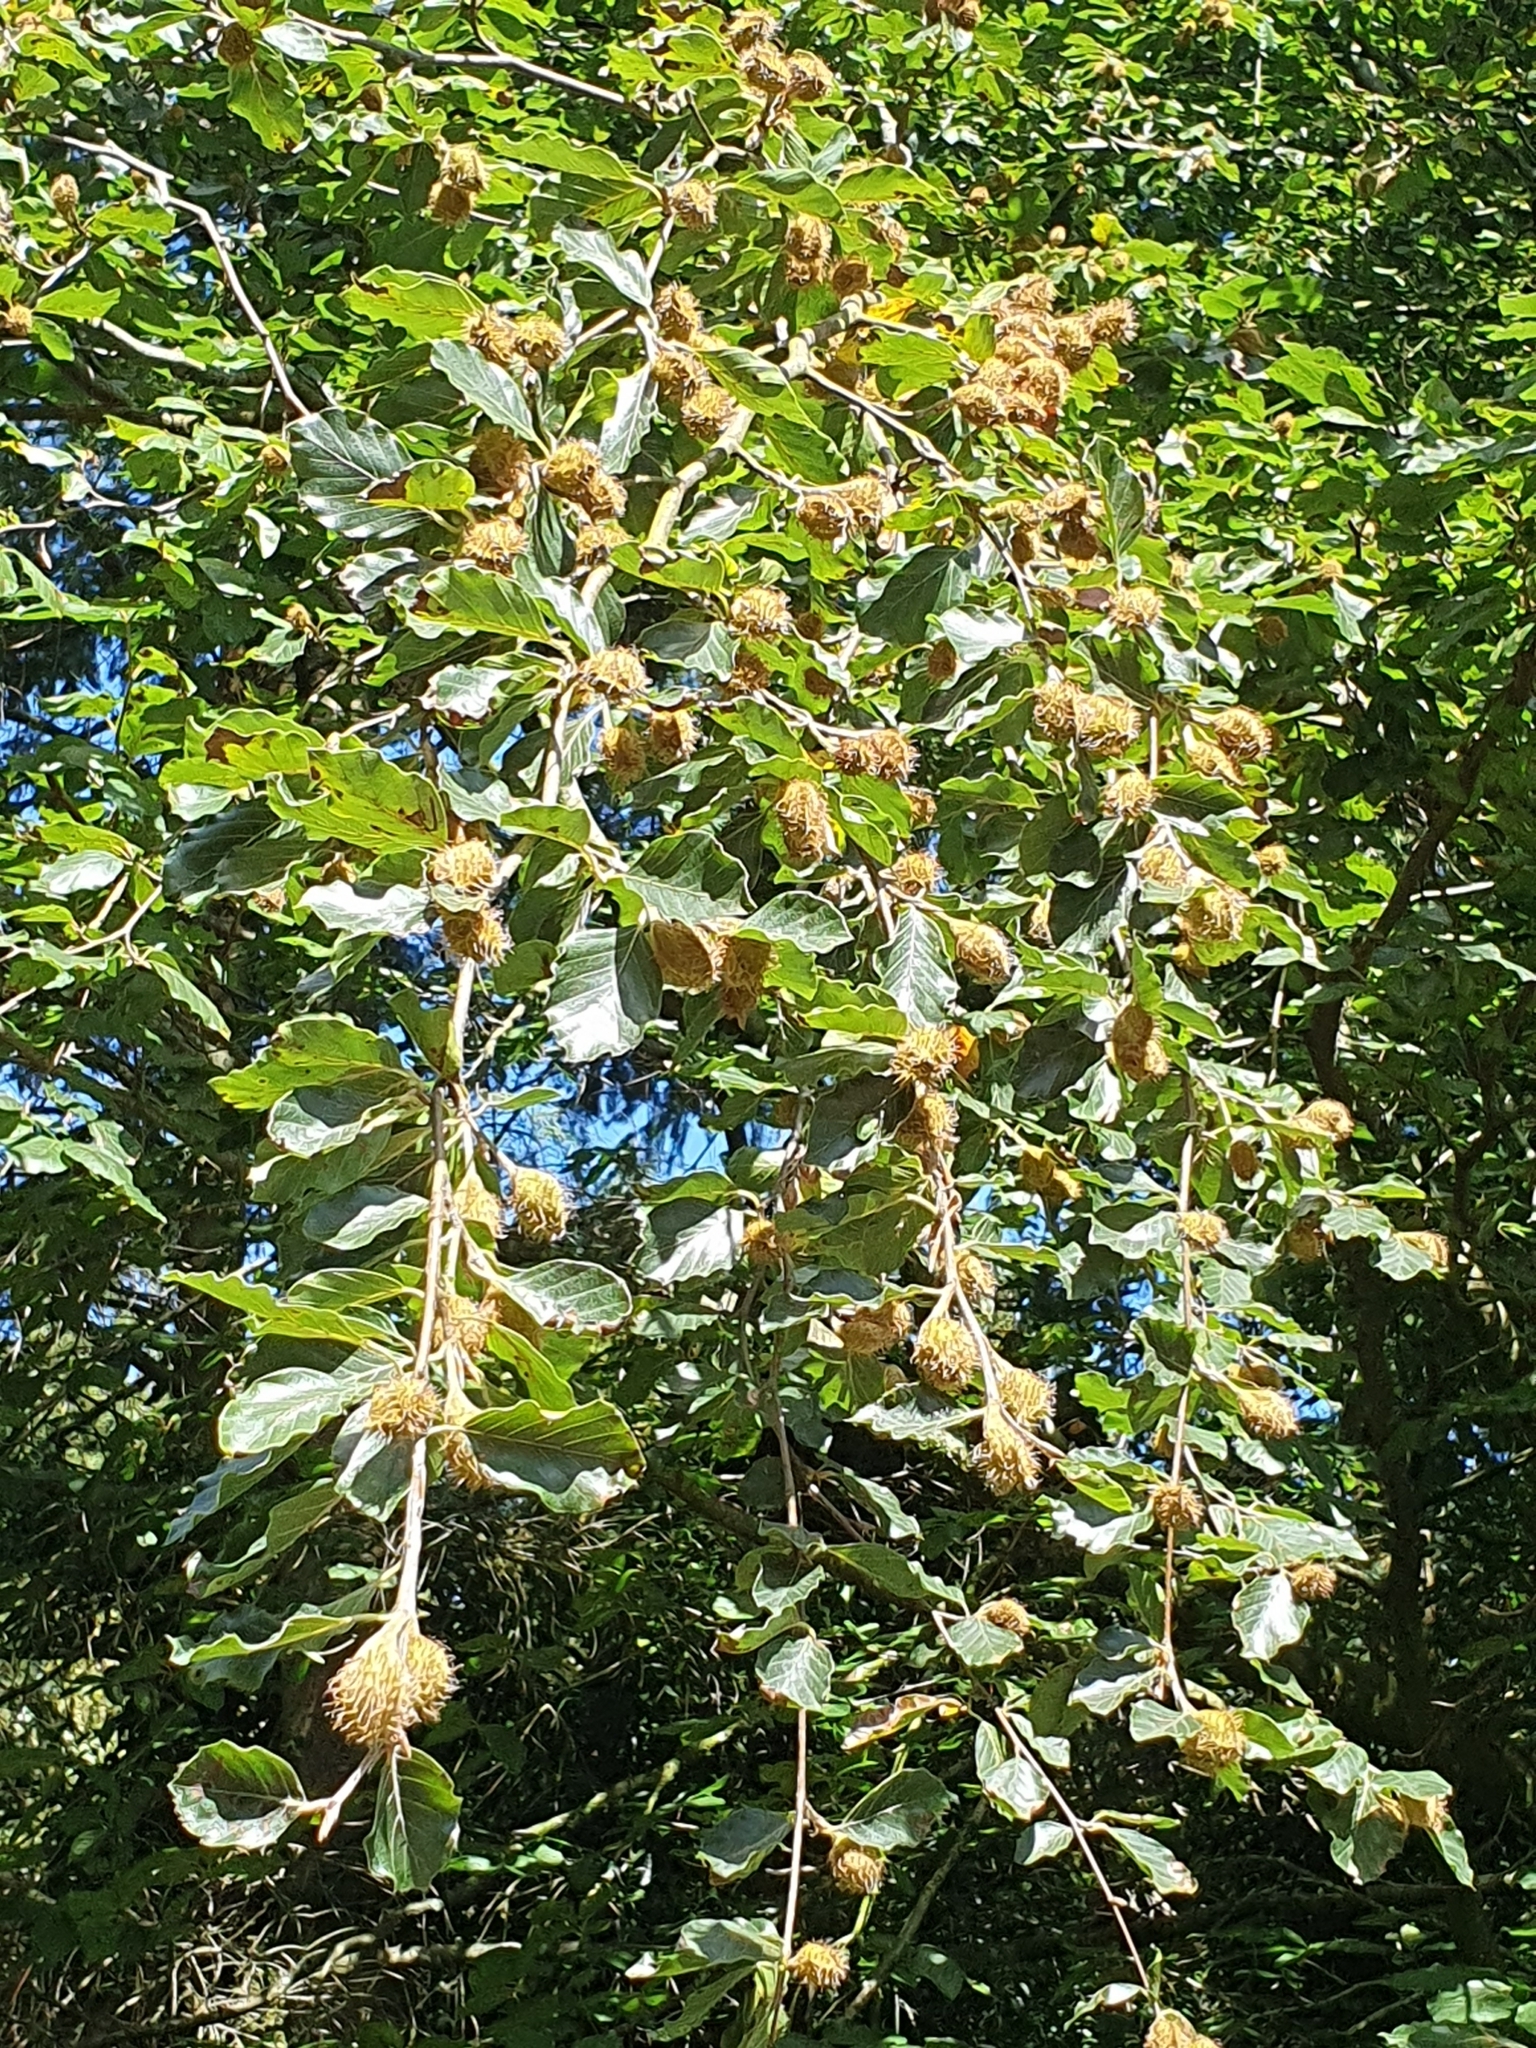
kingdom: Plantae
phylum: Tracheophyta
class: Magnoliopsida
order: Fagales
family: Fagaceae
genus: Fagus
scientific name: Fagus sylvatica
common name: Beech
